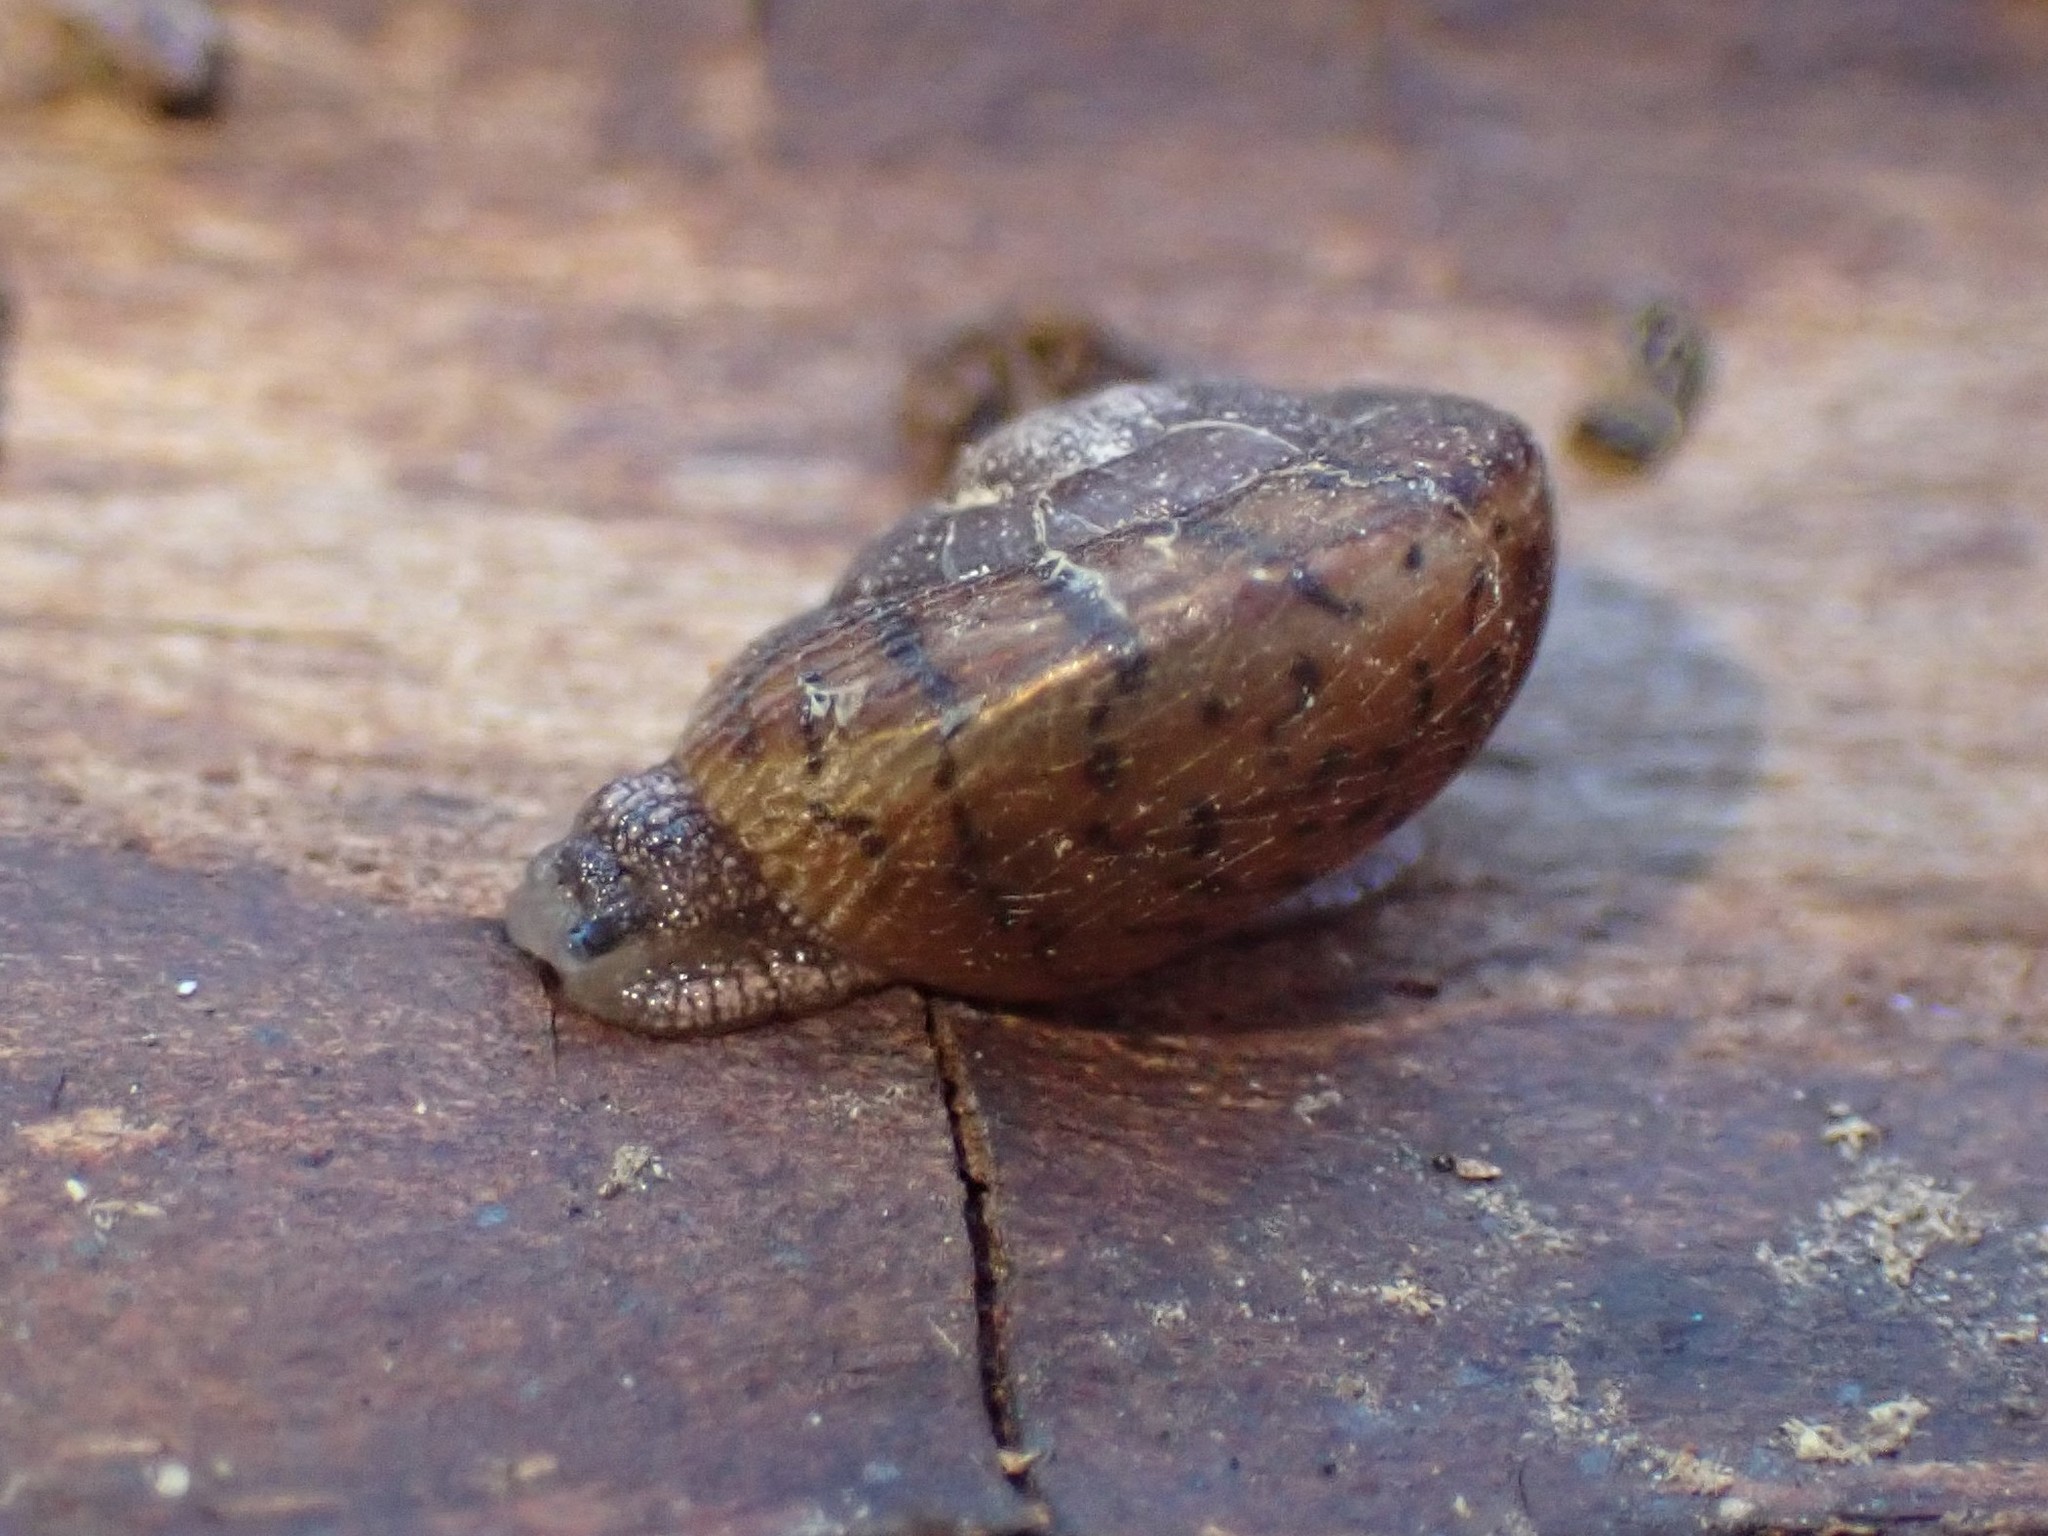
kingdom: Animalia
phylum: Mollusca
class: Gastropoda
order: Stylommatophora
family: Xanthonychidae
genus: Monadenia
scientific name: Monadenia fidelis
